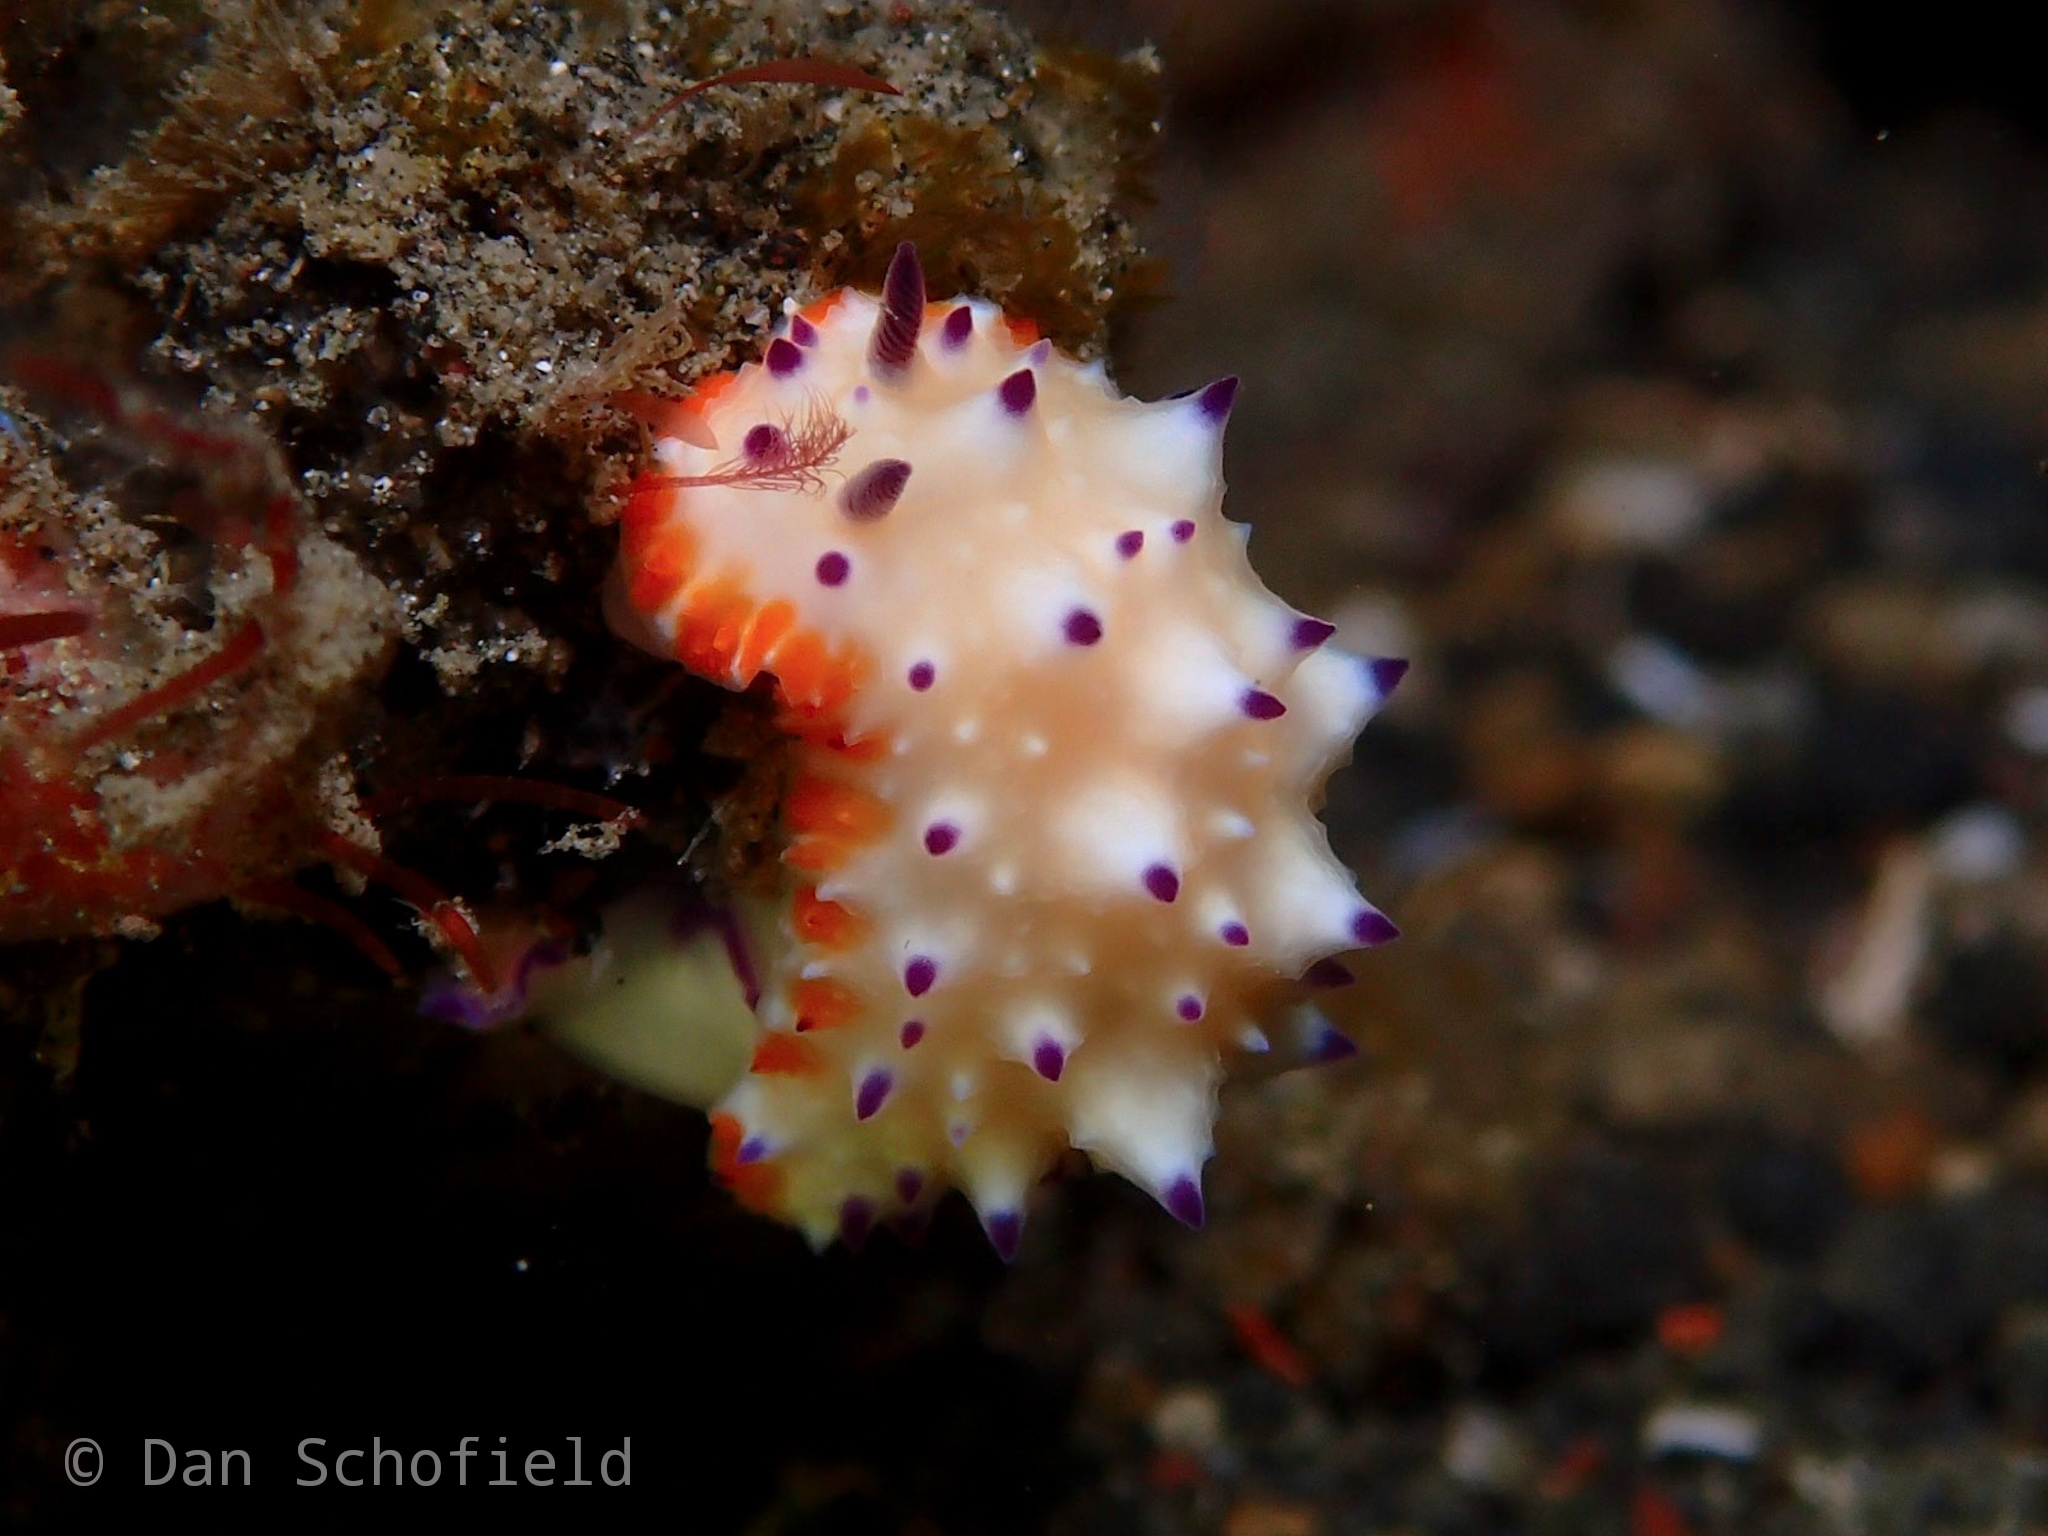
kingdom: Animalia
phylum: Mollusca
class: Gastropoda
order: Nudibranchia
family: Chromodorididae
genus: Mexichromis
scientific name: Mexichromis multituberculata
